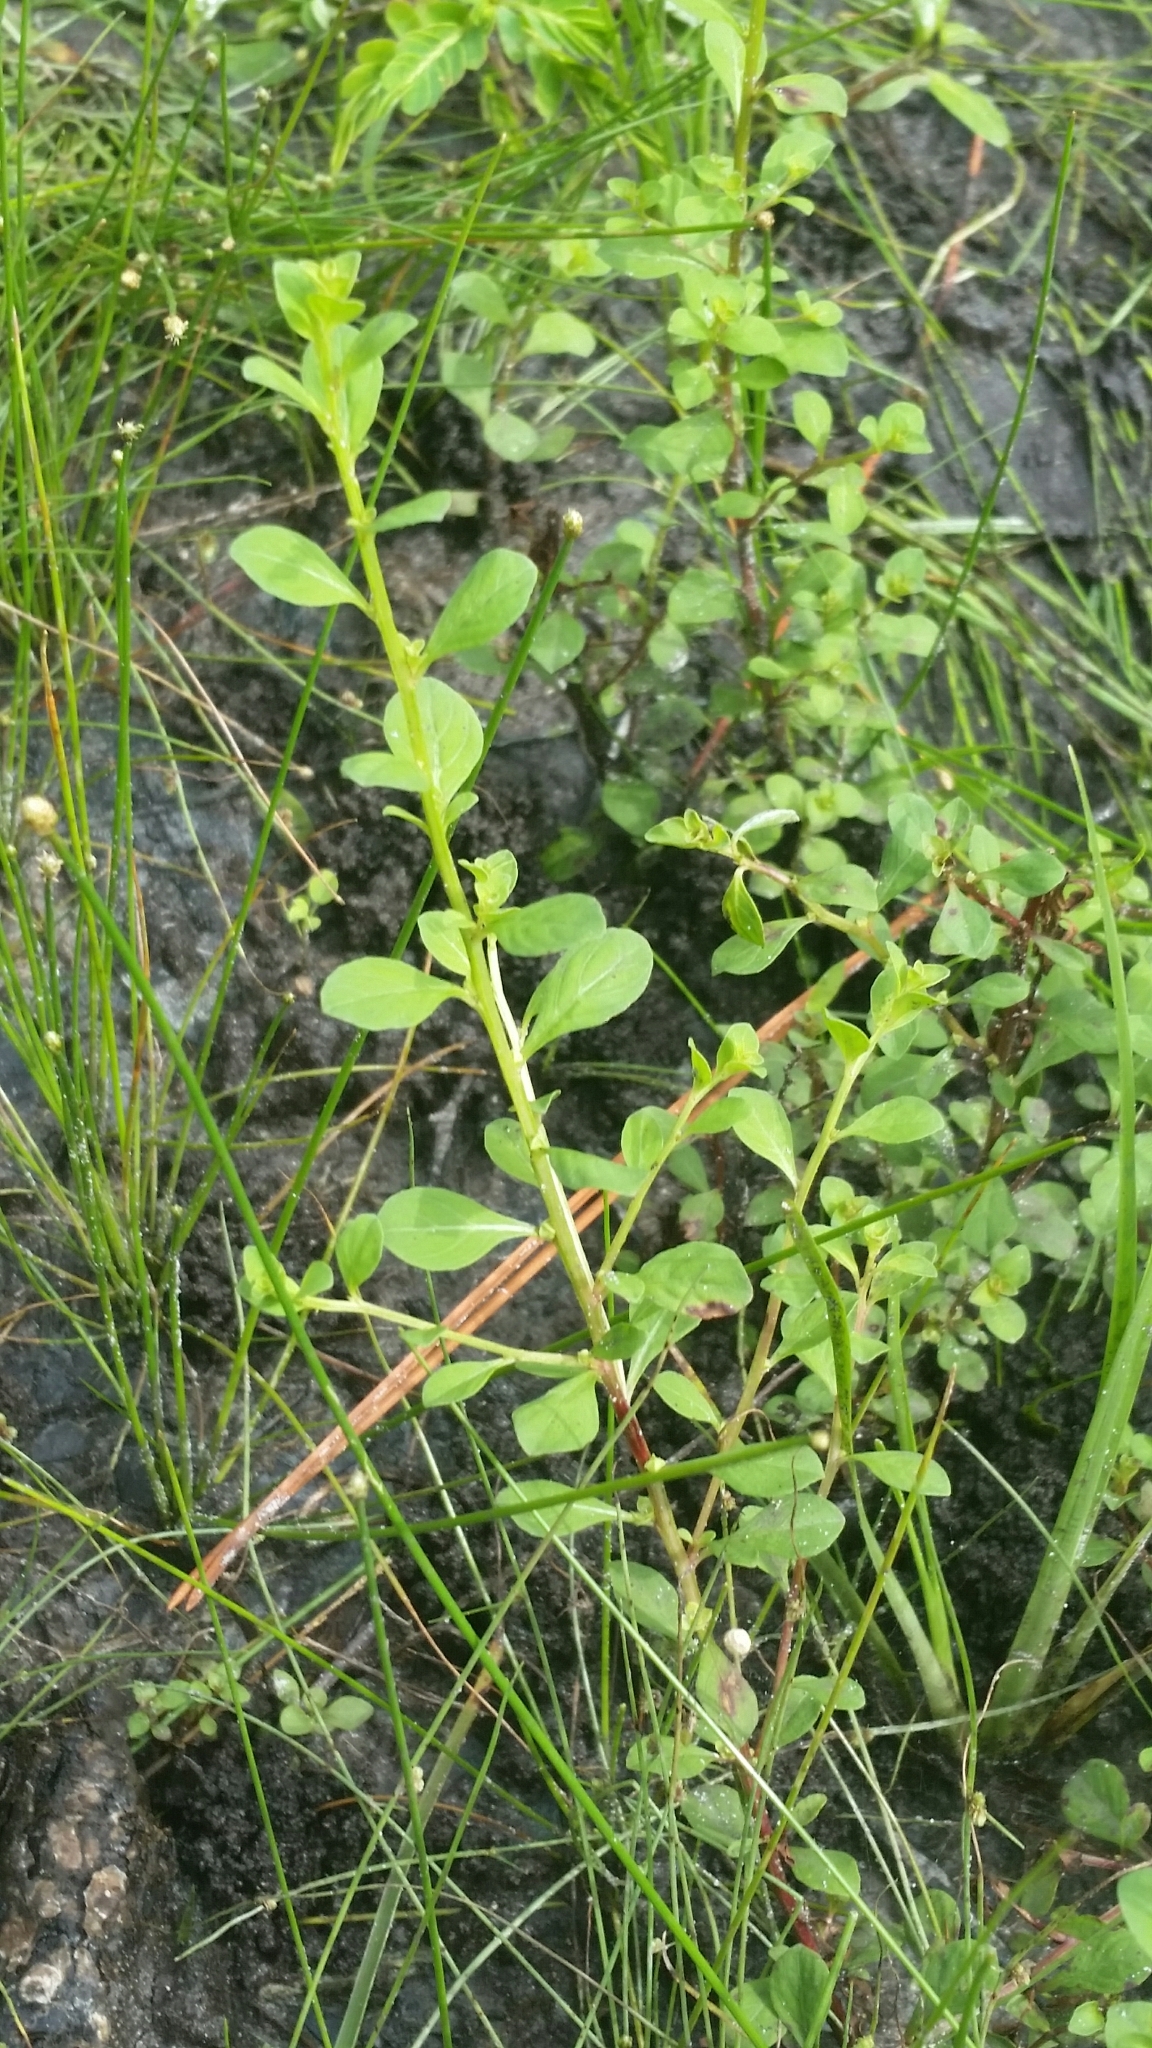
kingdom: Plantae
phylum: Tracheophyta
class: Magnoliopsida
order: Myrtales
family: Onagraceae
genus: Ludwigia
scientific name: Ludwigia microcarpa
